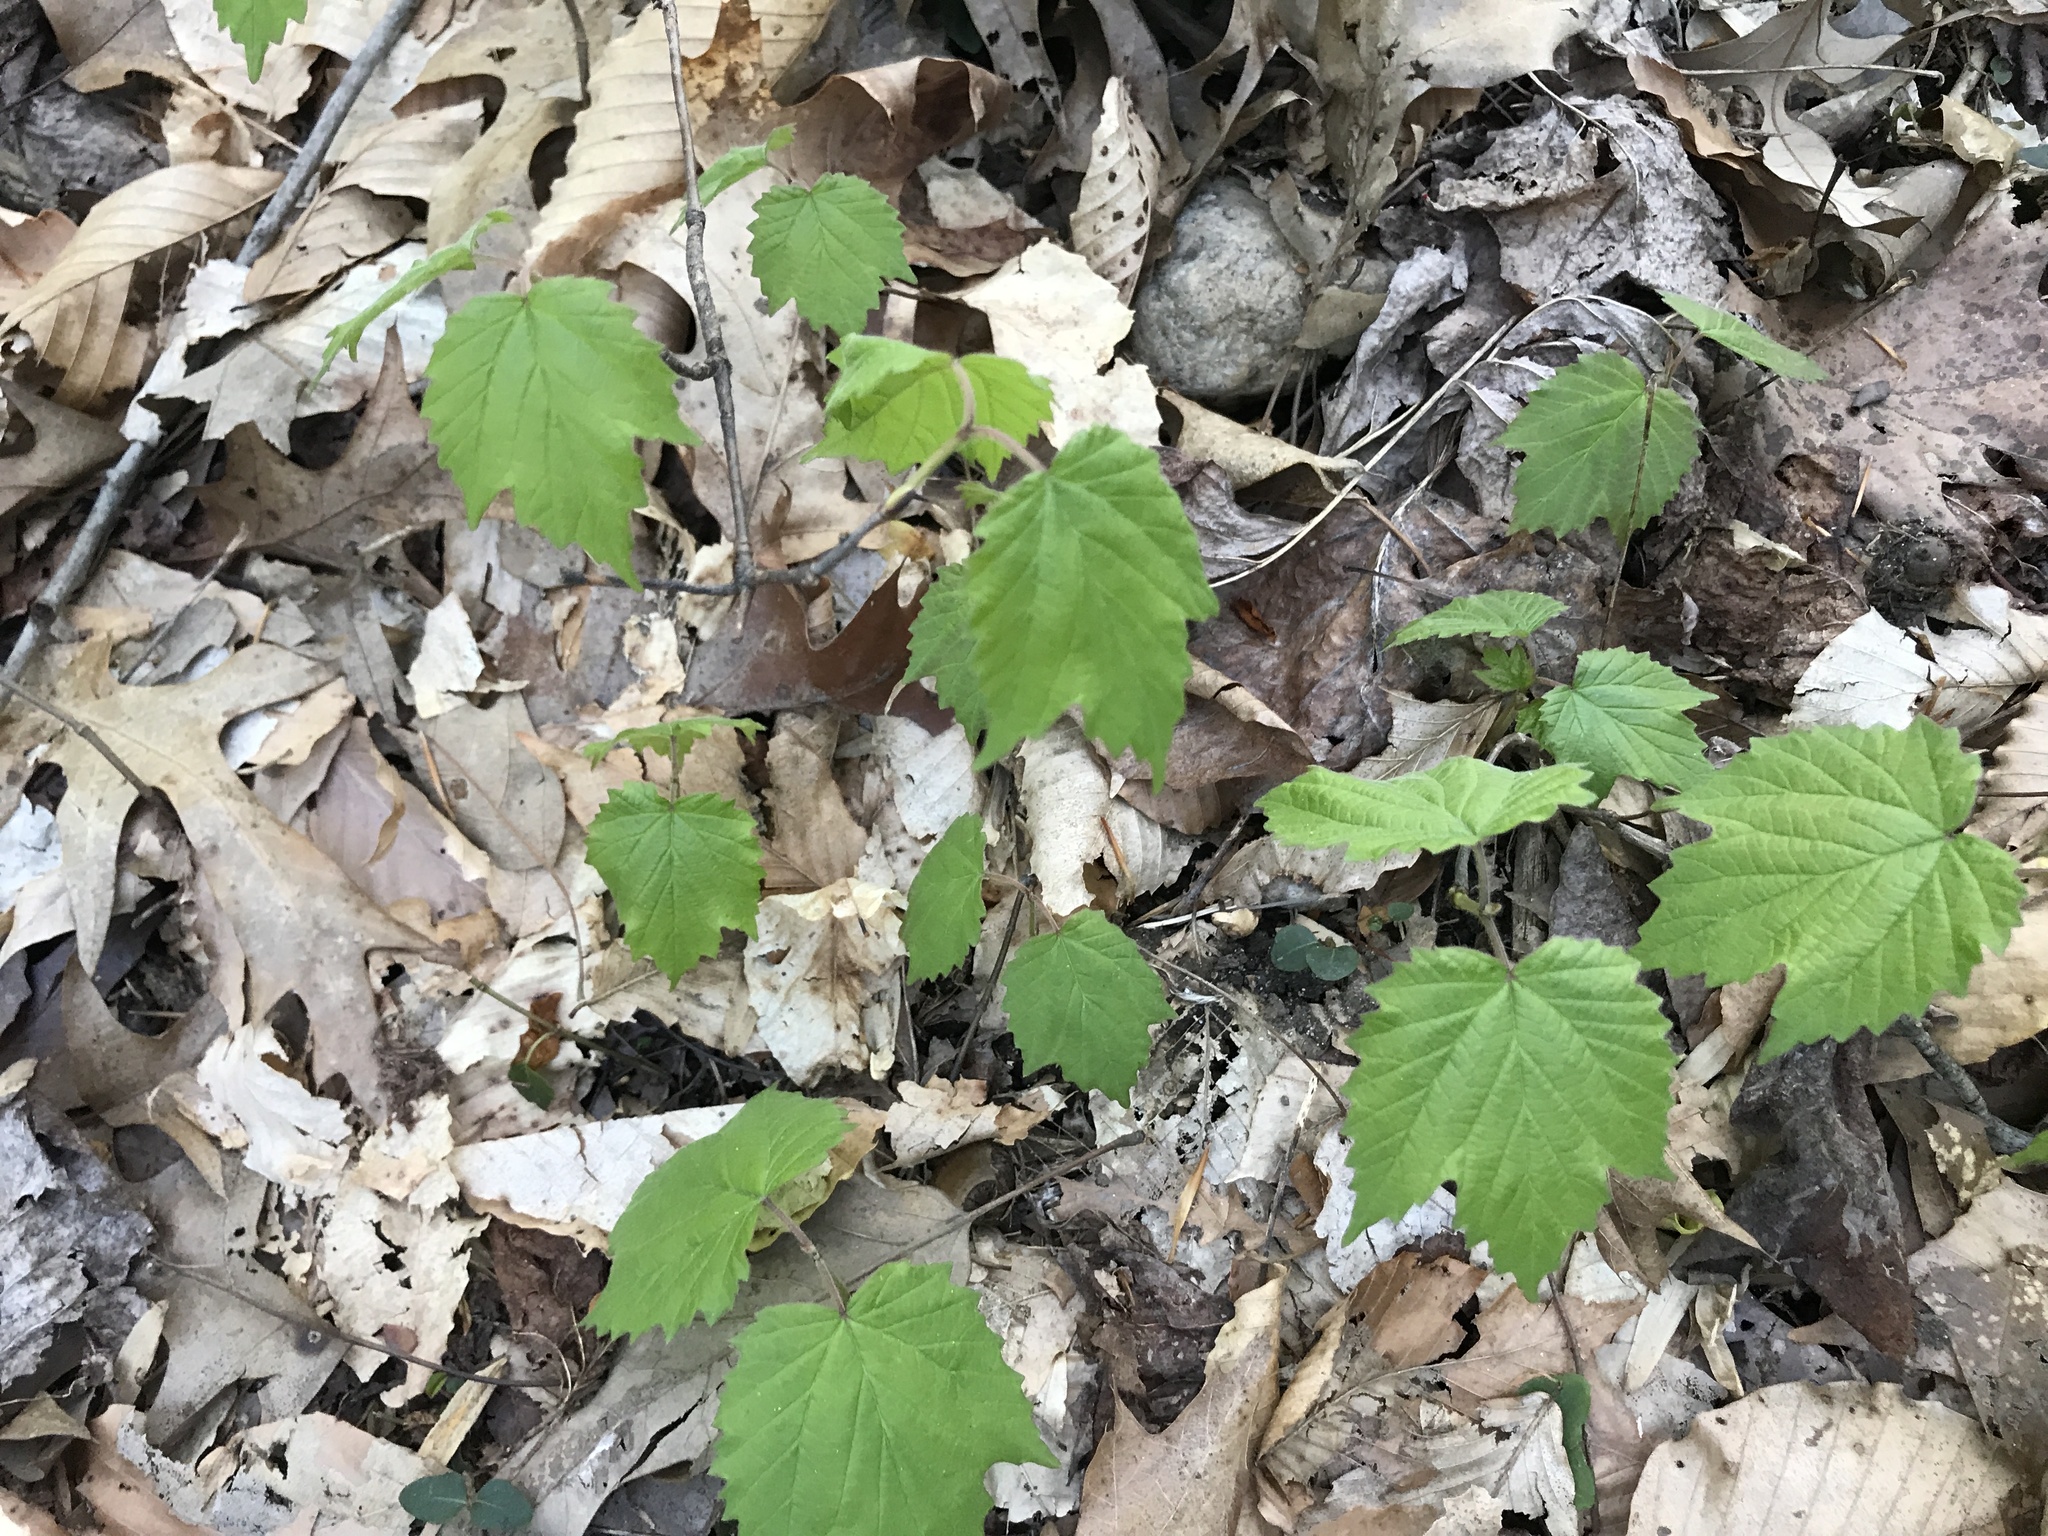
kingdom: Plantae
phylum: Tracheophyta
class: Magnoliopsida
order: Dipsacales
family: Viburnaceae
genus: Viburnum
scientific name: Viburnum acerifolium
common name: Dockmackie
